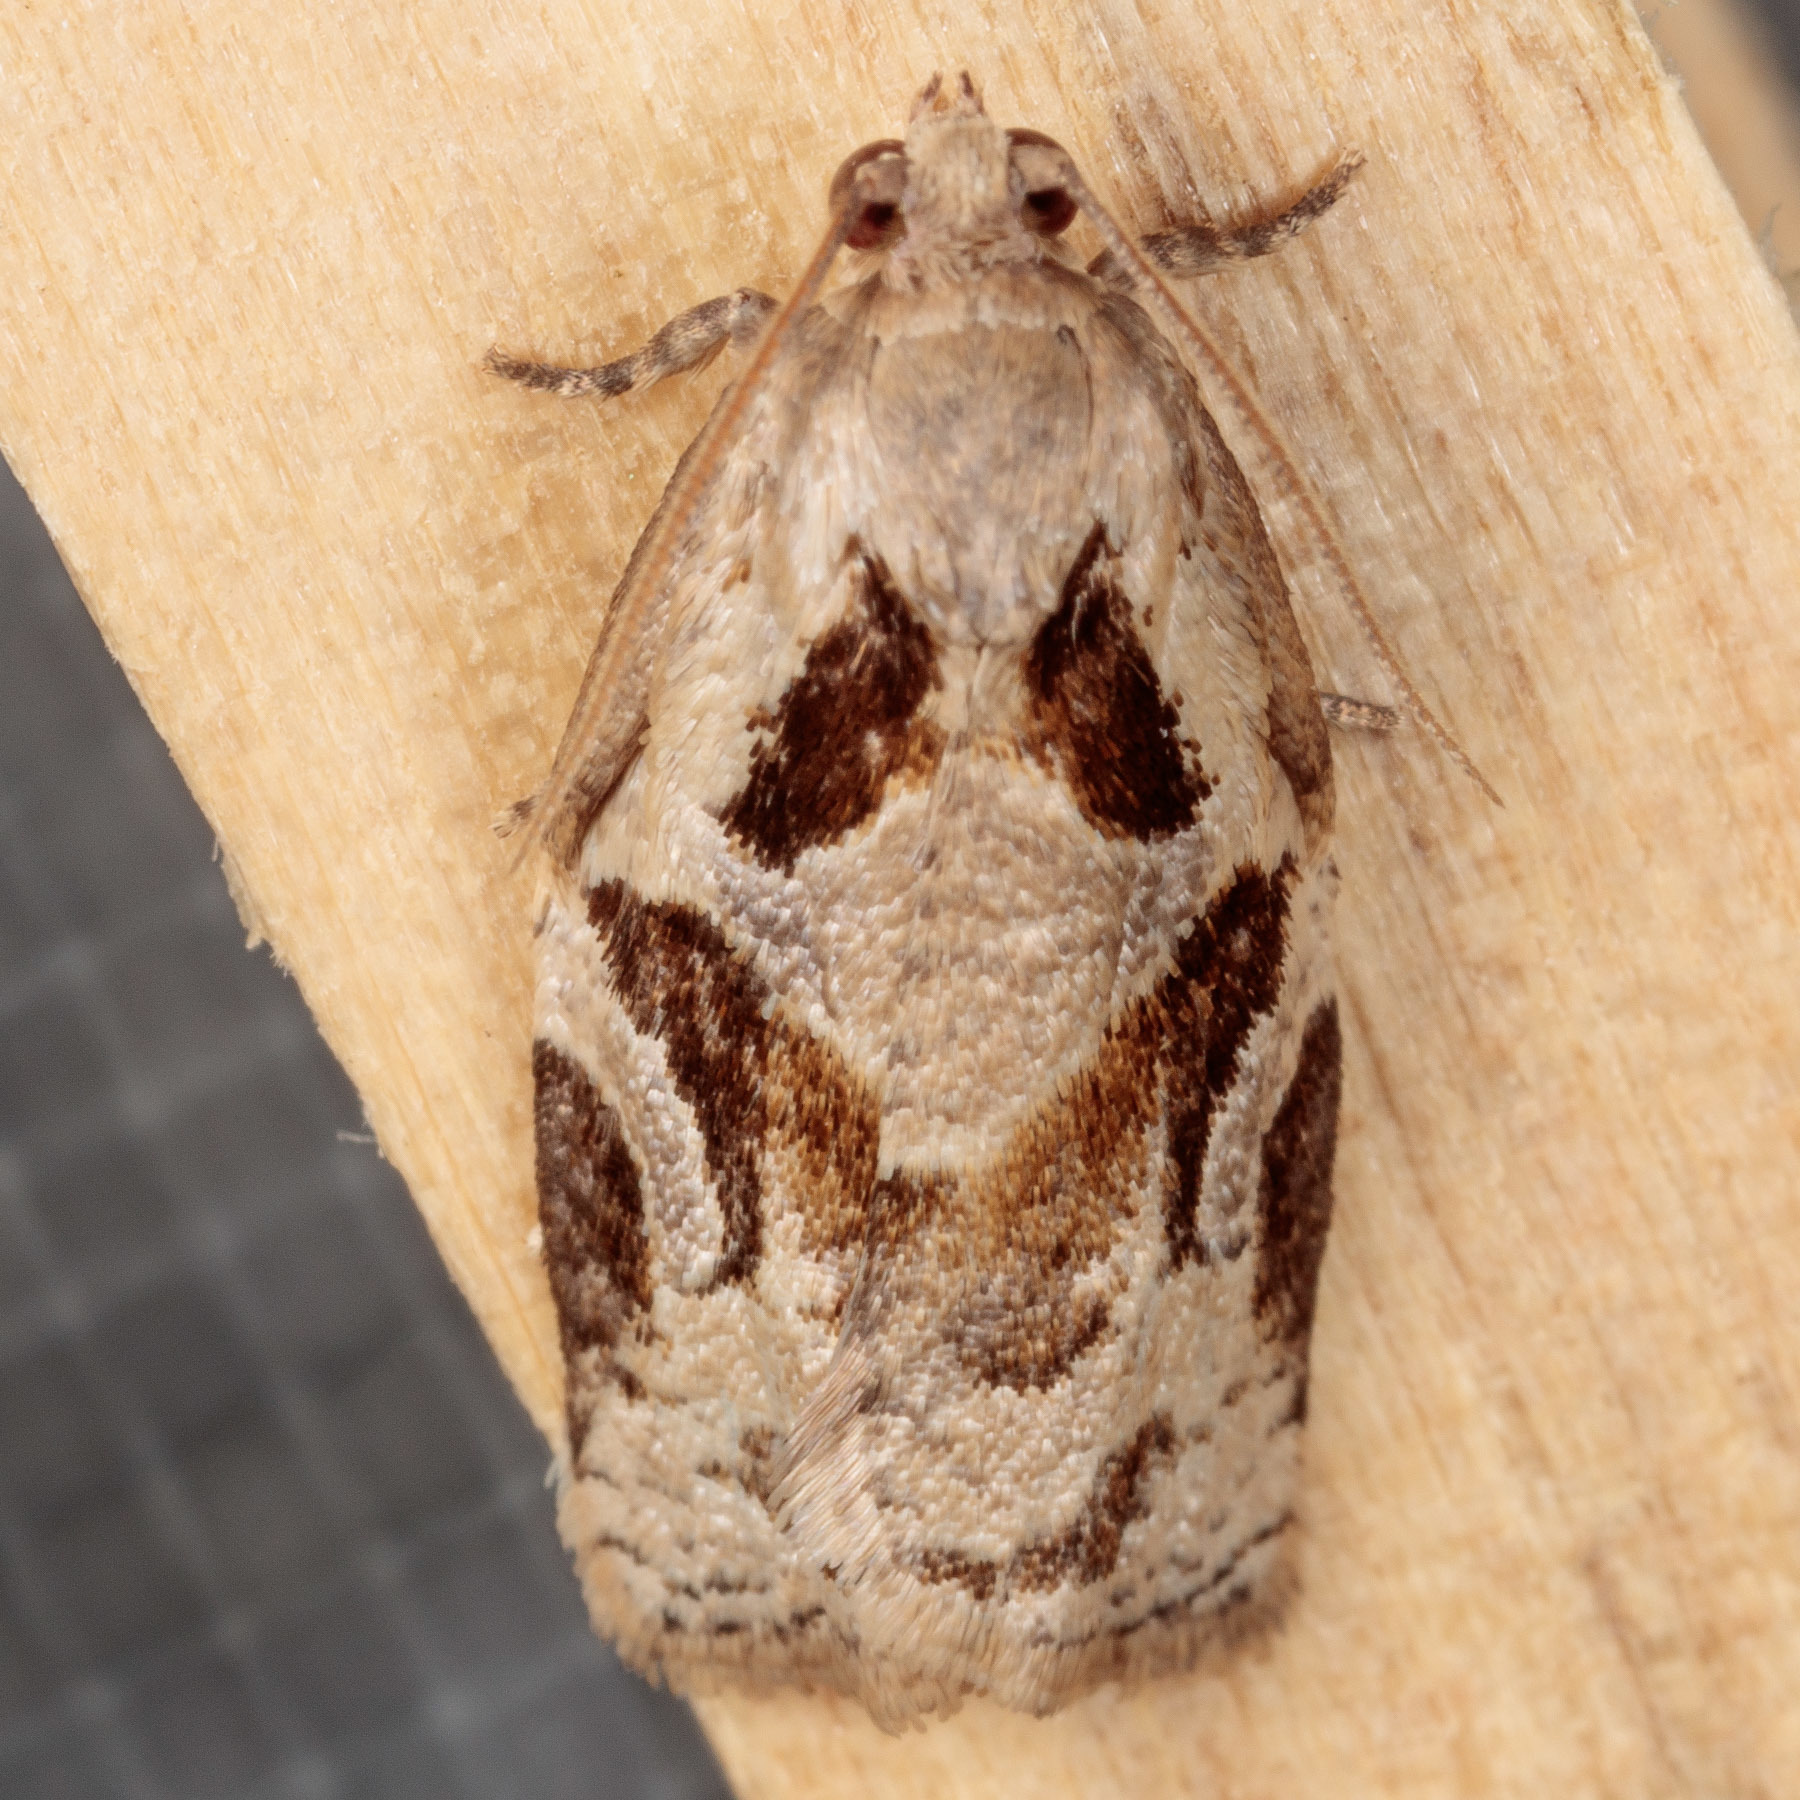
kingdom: Animalia
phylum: Arthropoda
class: Insecta
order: Lepidoptera
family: Tortricidae
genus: Archips
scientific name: Archips grisea
